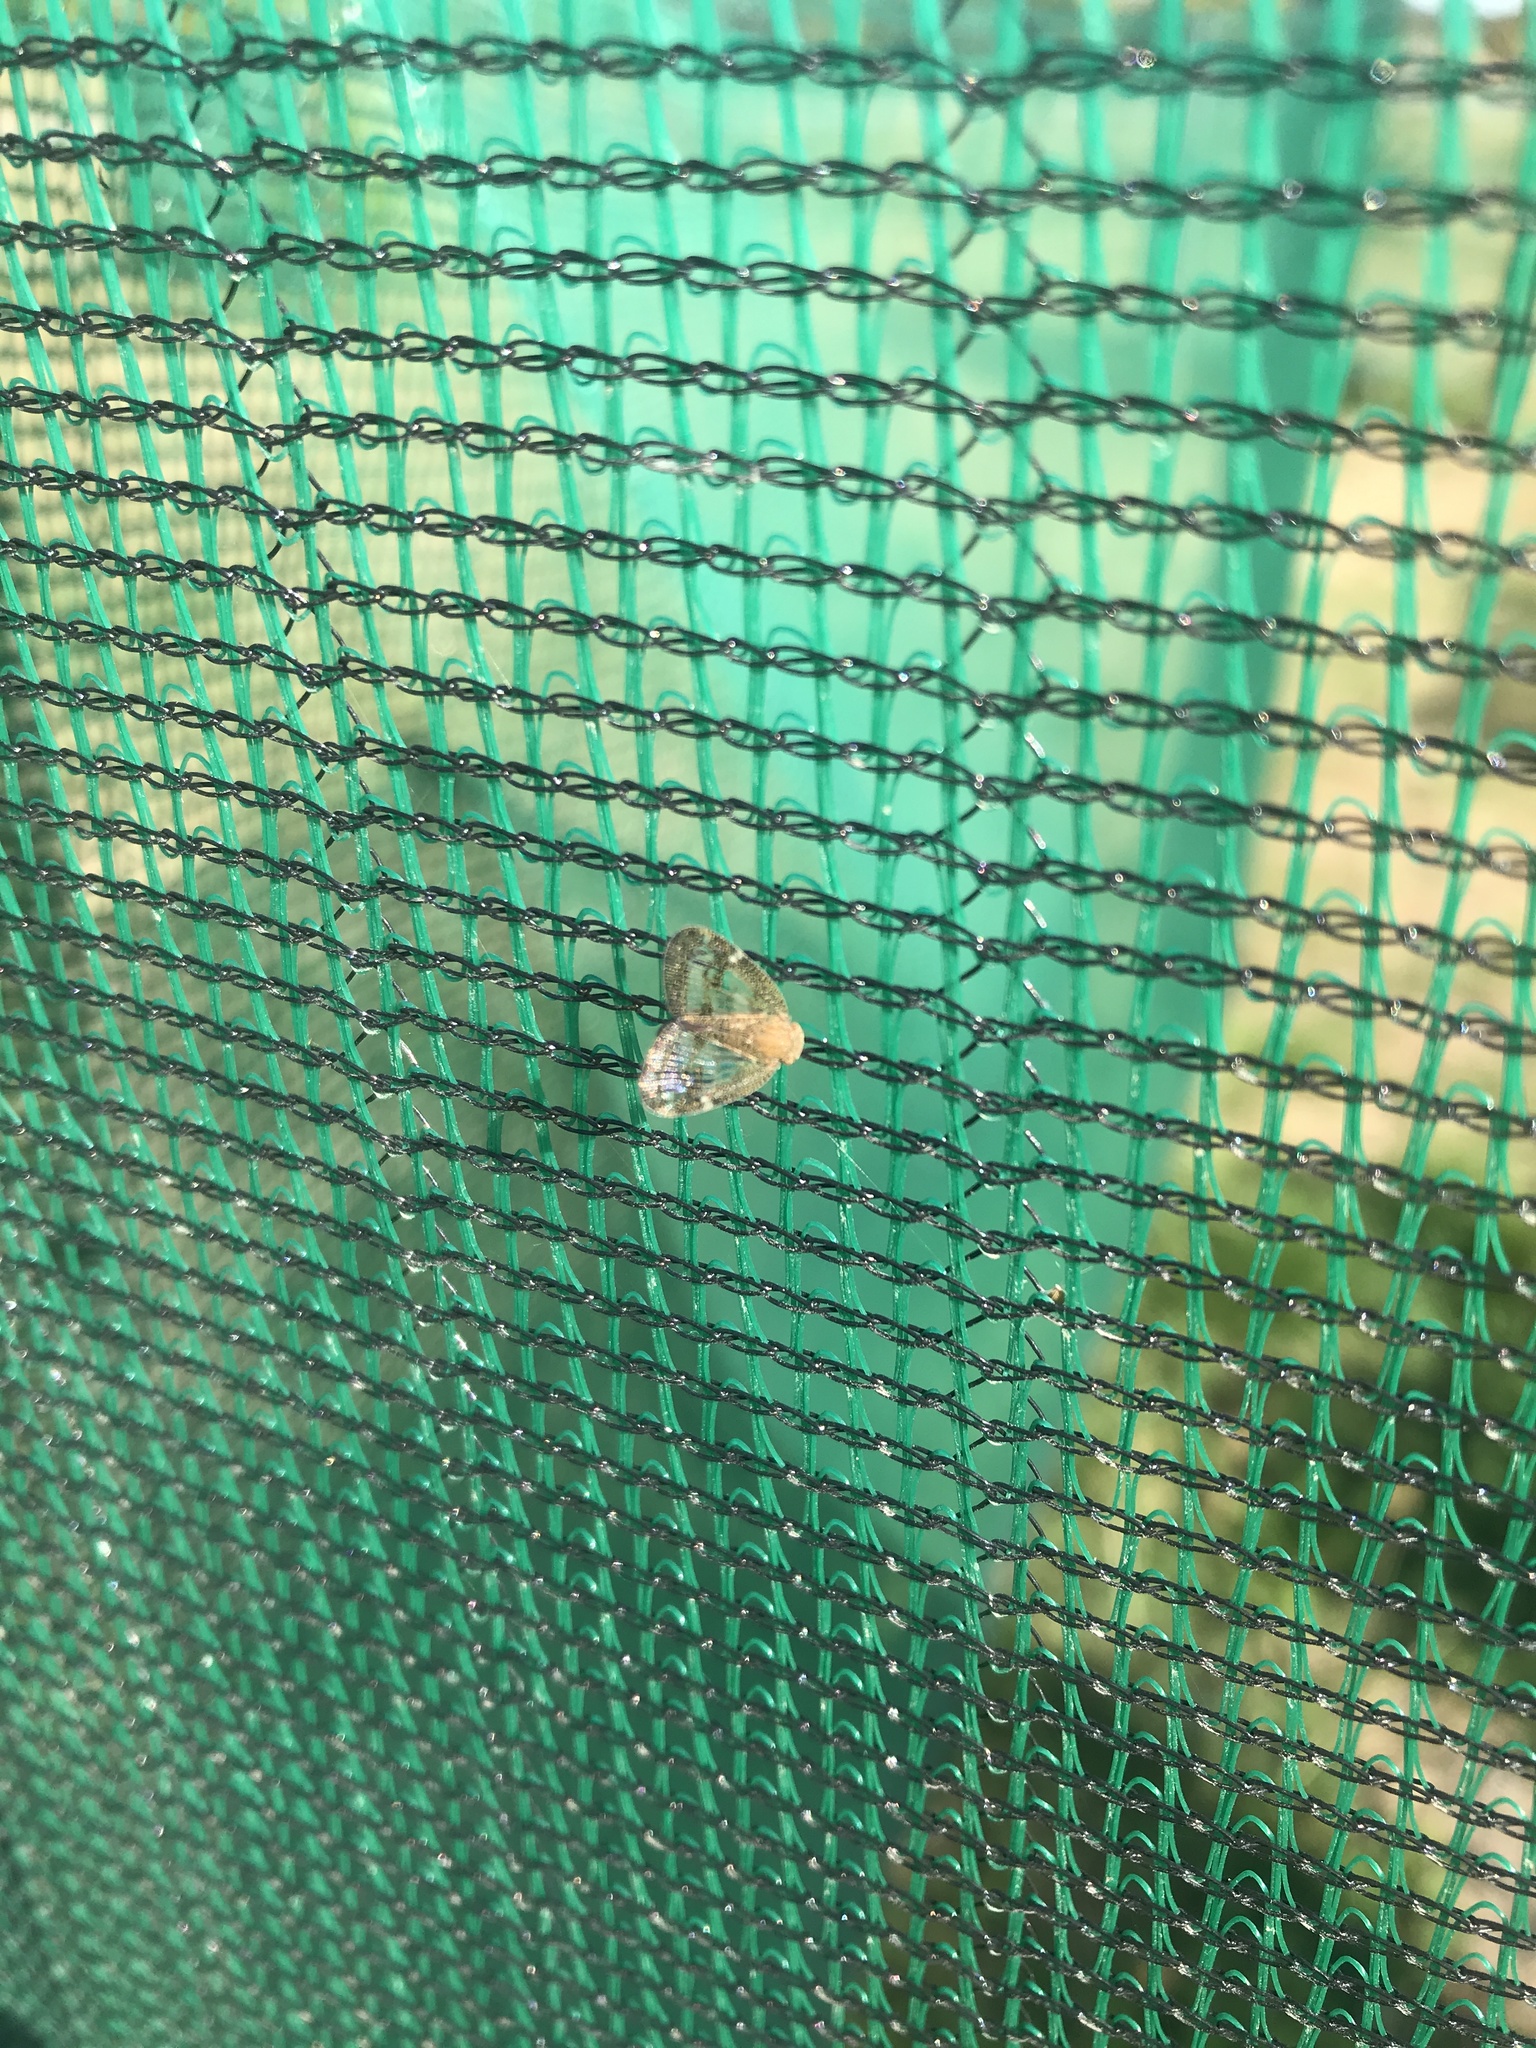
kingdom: Animalia
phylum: Arthropoda
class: Insecta
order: Hemiptera
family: Ricaniidae
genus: Scolypopa
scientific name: Scolypopa australis
